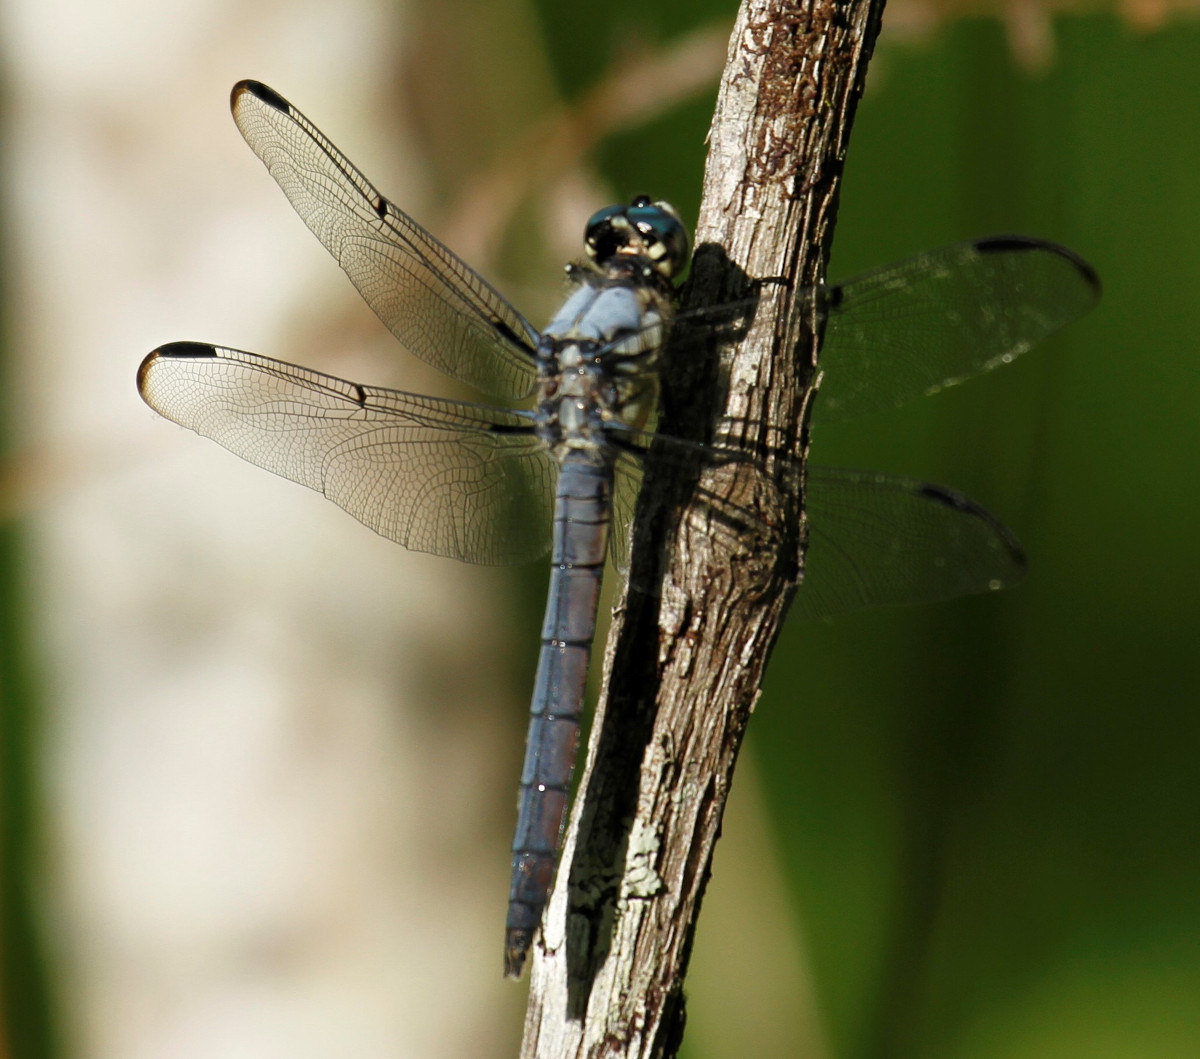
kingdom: Animalia
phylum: Arthropoda
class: Insecta
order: Odonata
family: Libellulidae
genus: Libellula
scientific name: Libellula vibrans
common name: Great blue skimmer
